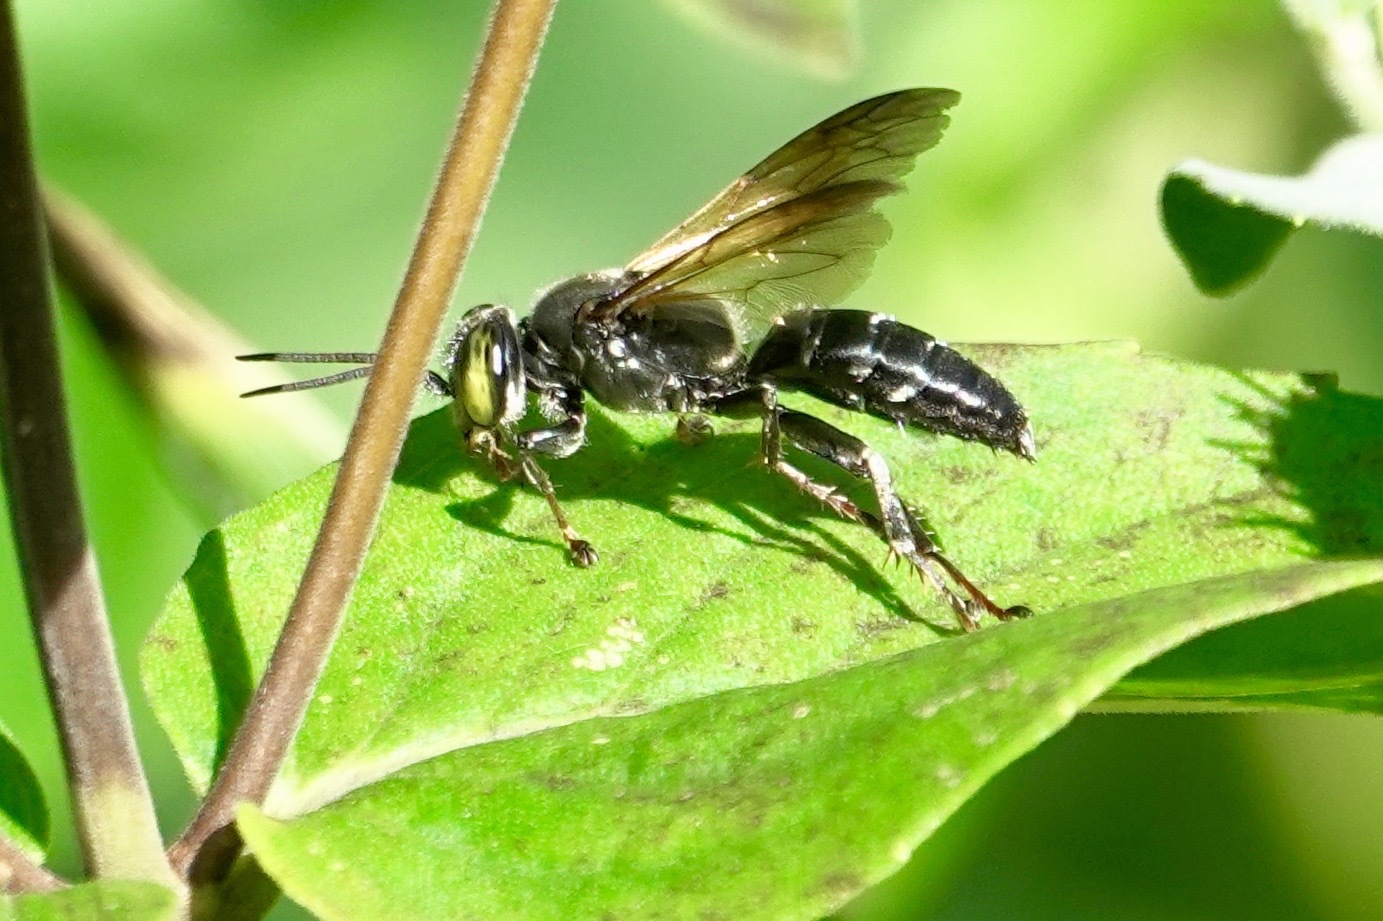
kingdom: Animalia
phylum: Arthropoda
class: Insecta
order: Hymenoptera
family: Crabronidae
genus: Tachytes
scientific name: Tachytes guatemalensis
